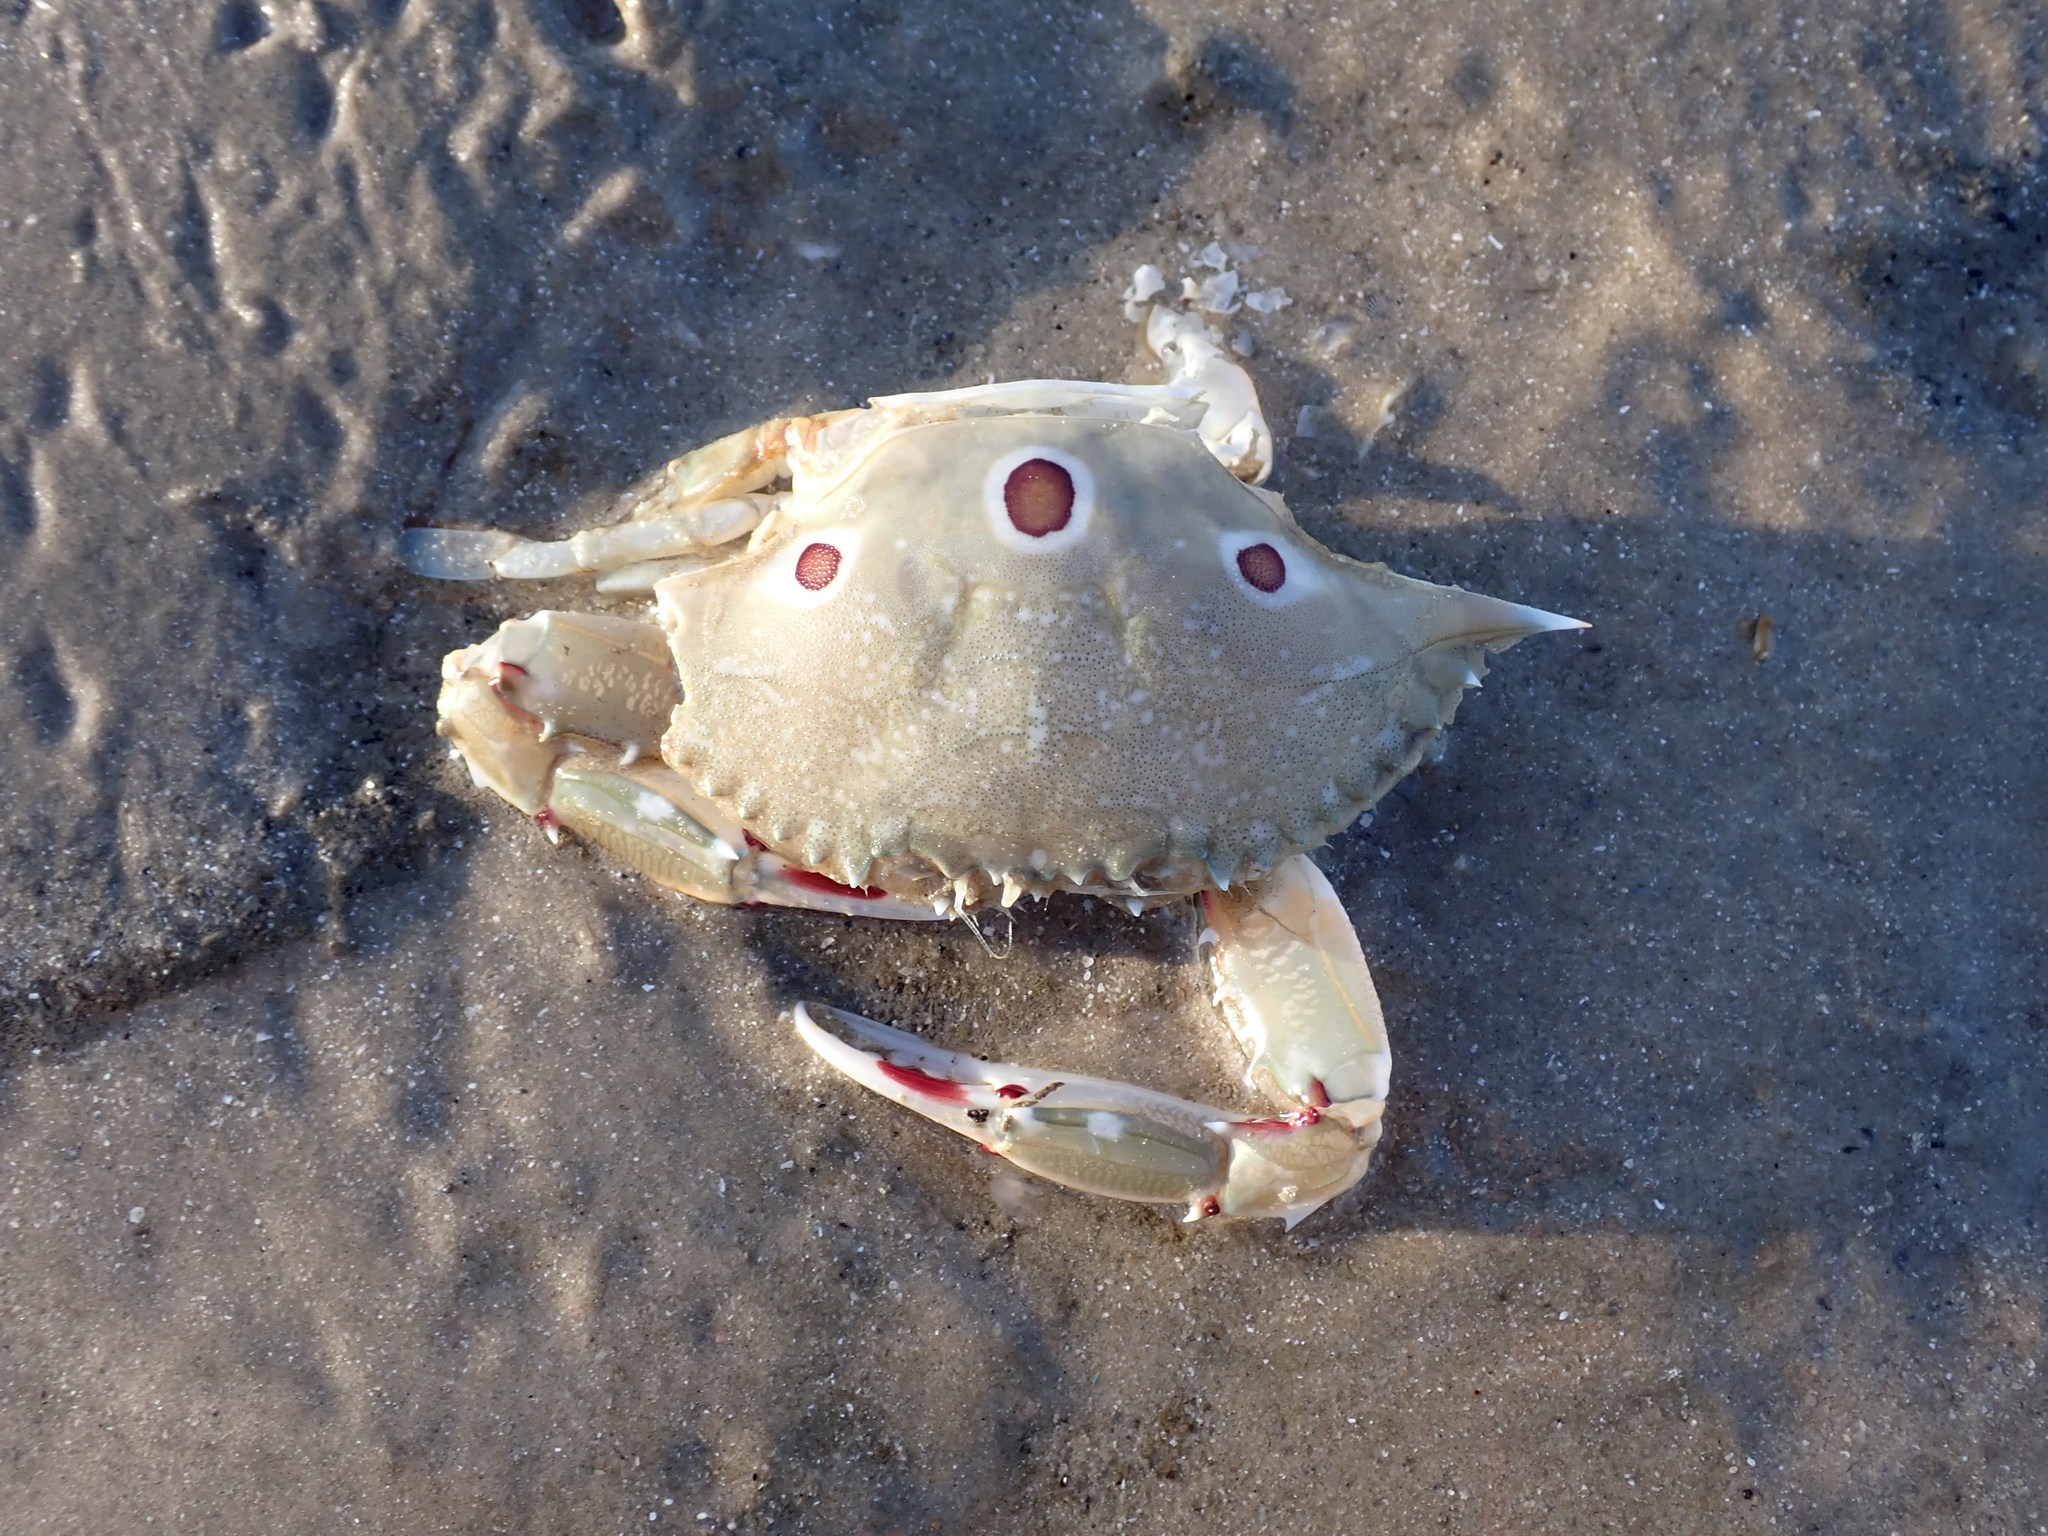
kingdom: Animalia
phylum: Arthropoda
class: Malacostraca
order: Decapoda
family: Portunidae
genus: Portunus
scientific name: Portunus sanguinolentus
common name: Blood-spotted swimming crab
